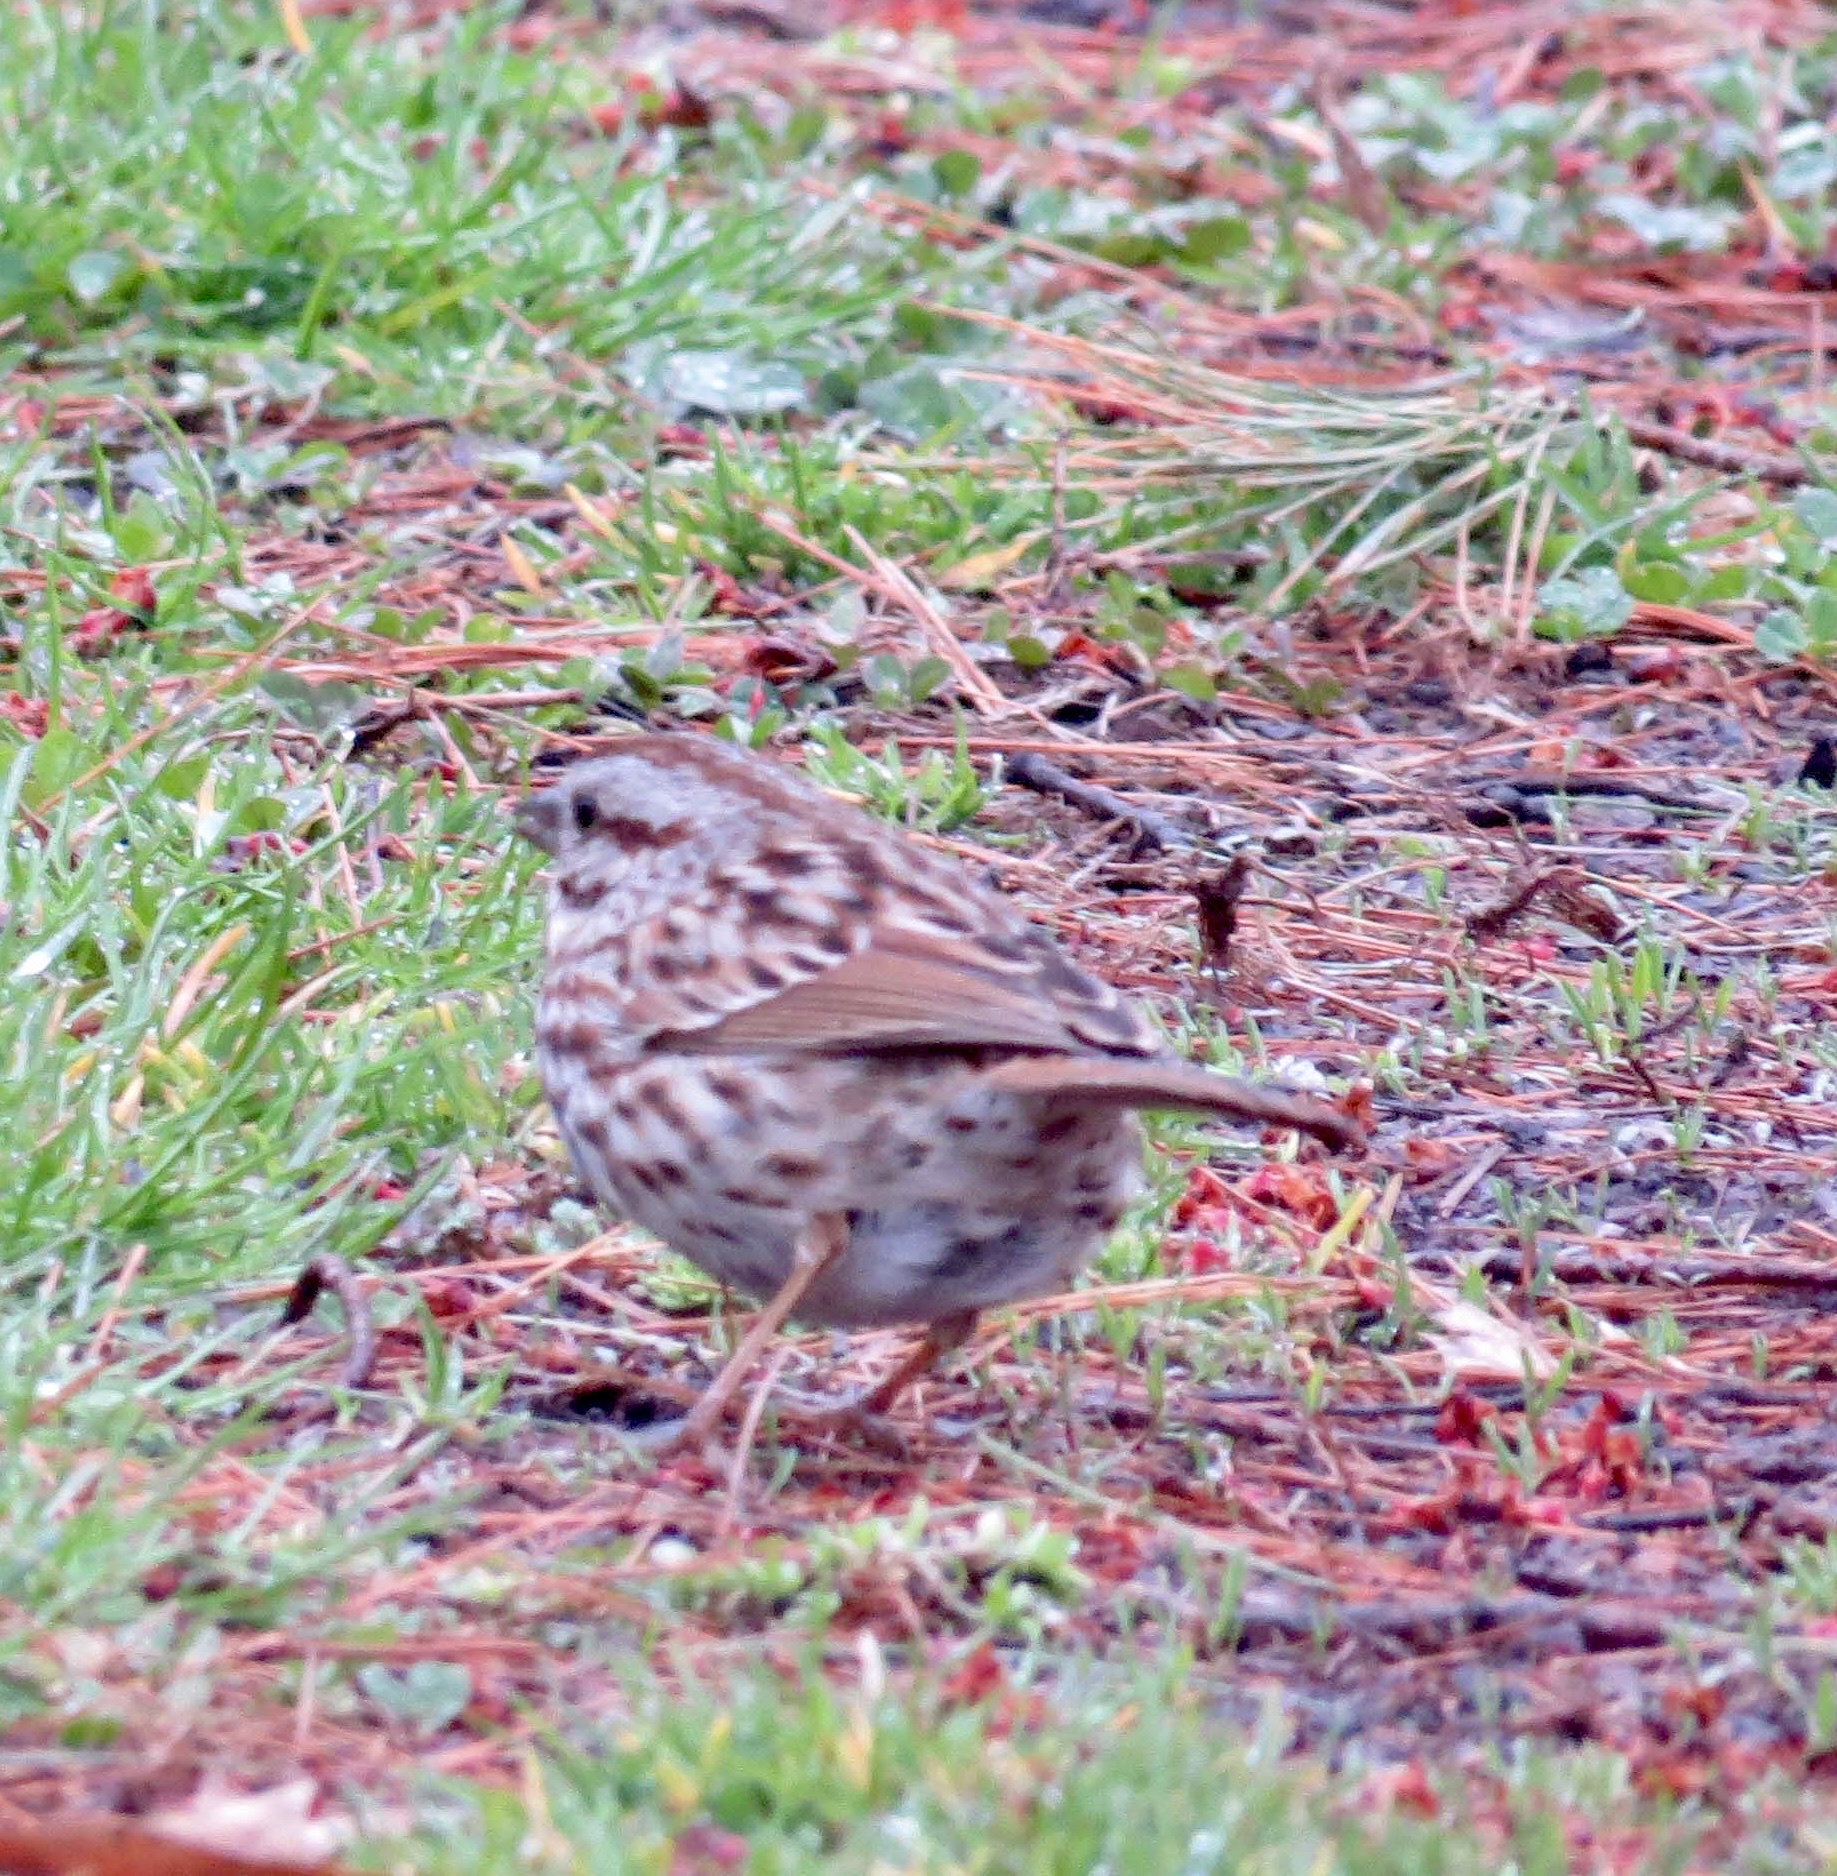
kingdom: Animalia
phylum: Chordata
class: Aves
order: Passeriformes
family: Passerellidae
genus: Melospiza
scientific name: Melospiza melodia
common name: Song sparrow
